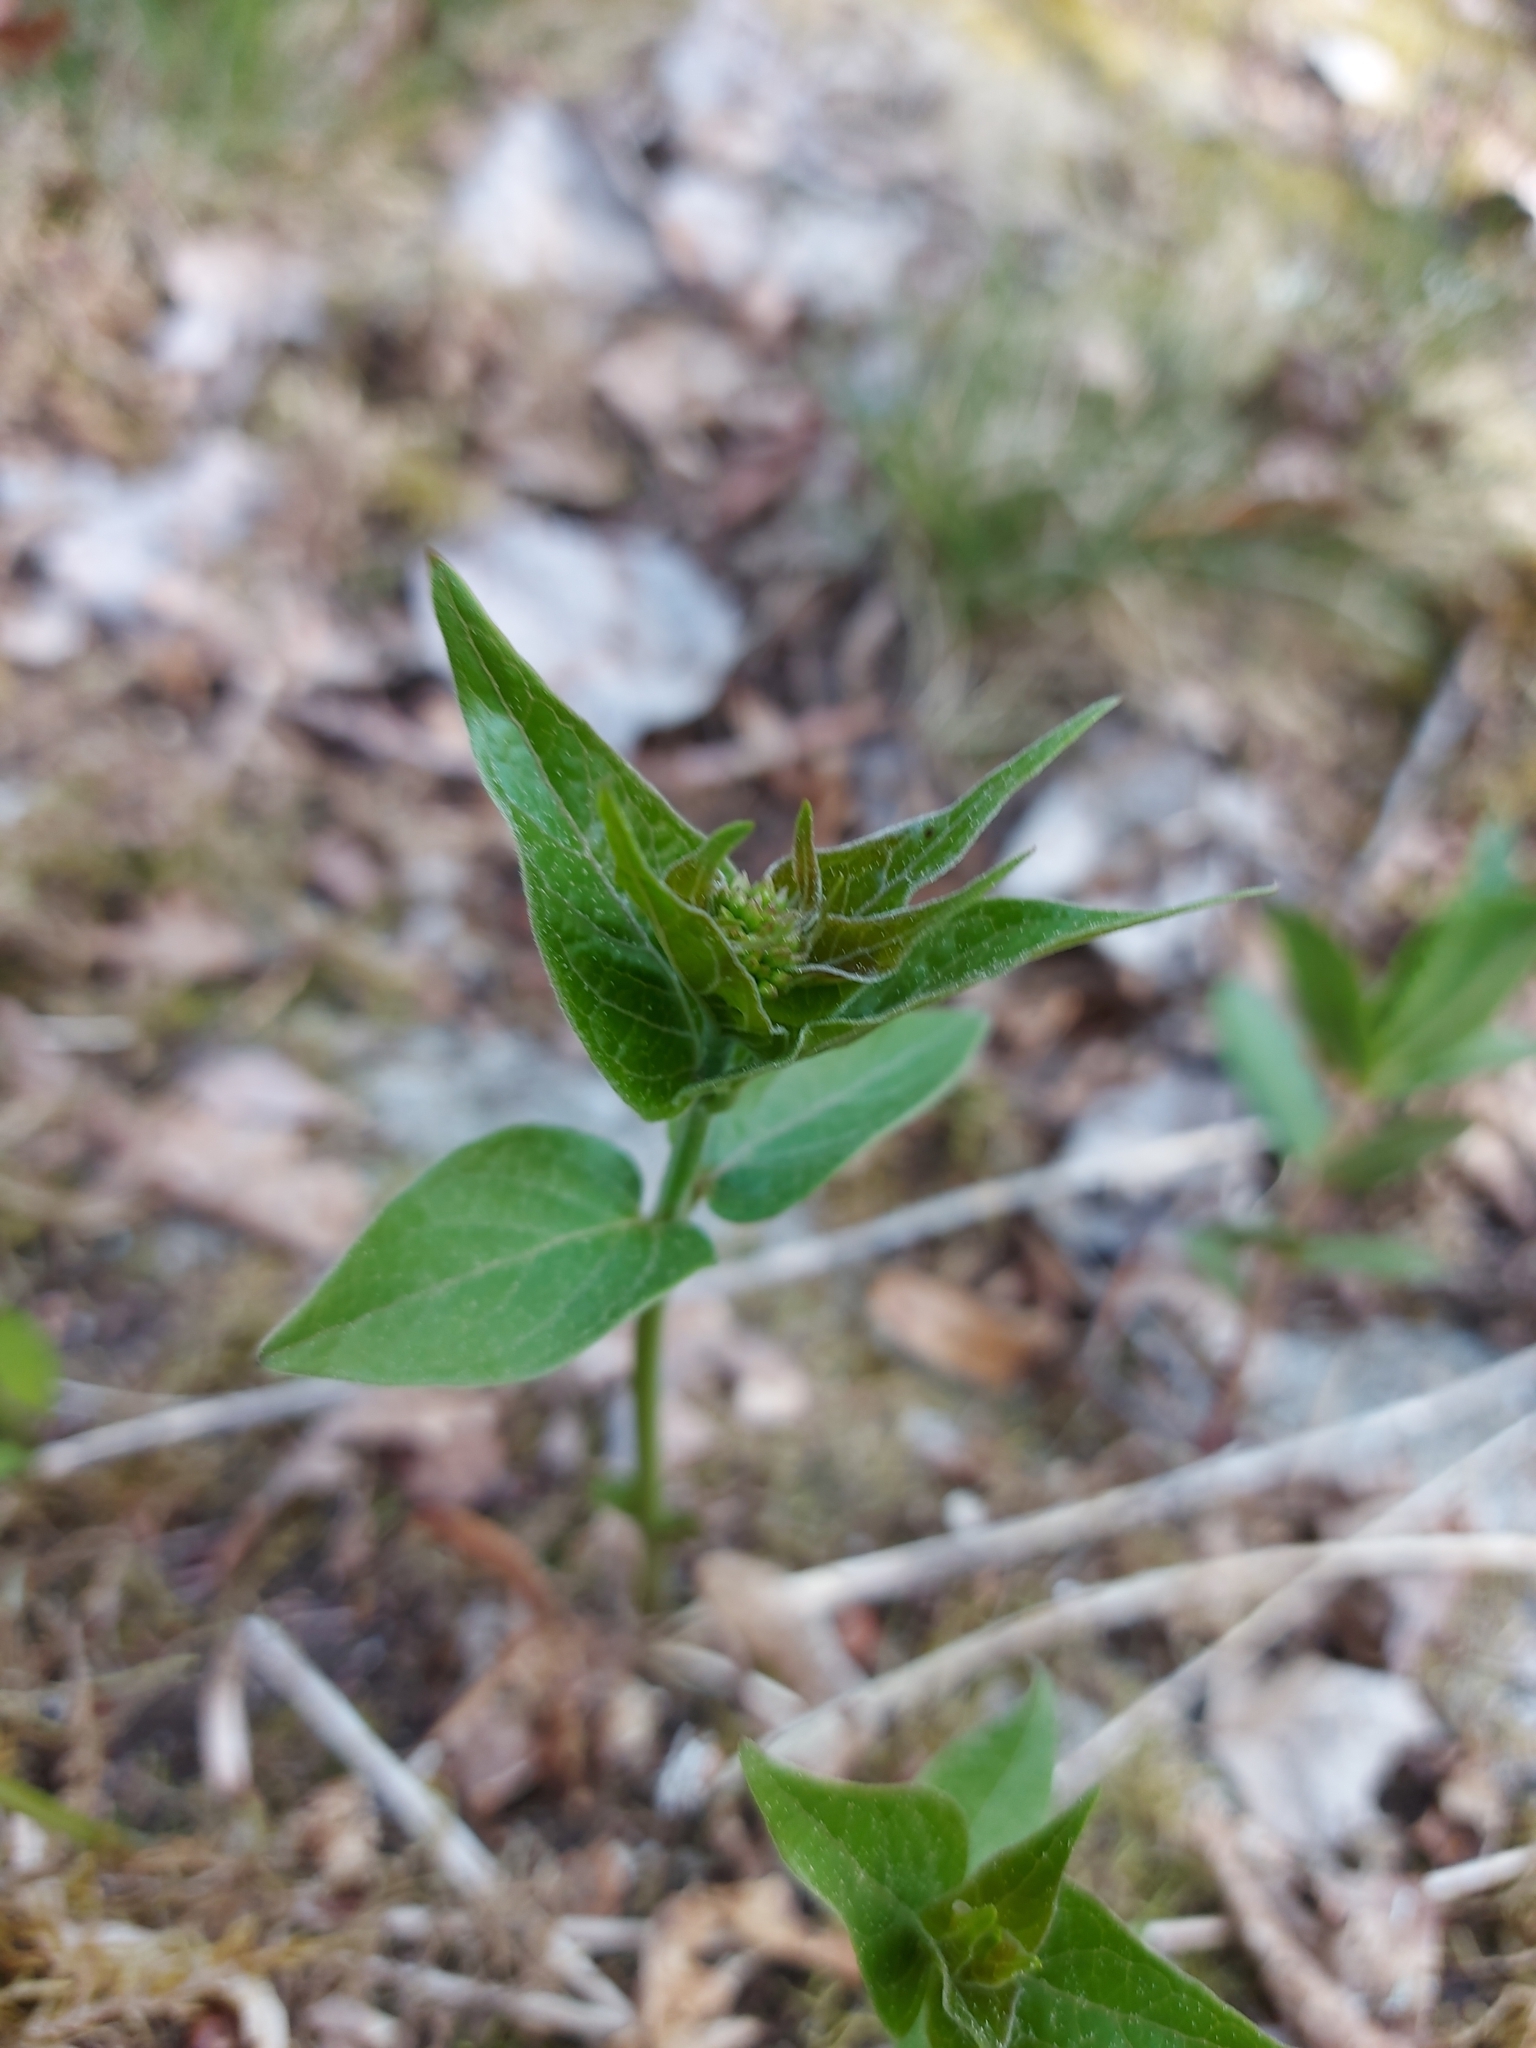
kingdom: Plantae
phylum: Tracheophyta
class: Magnoliopsida
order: Gentianales
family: Apocynaceae
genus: Vincetoxicum
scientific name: Vincetoxicum hirundinaria
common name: White swallowwort
